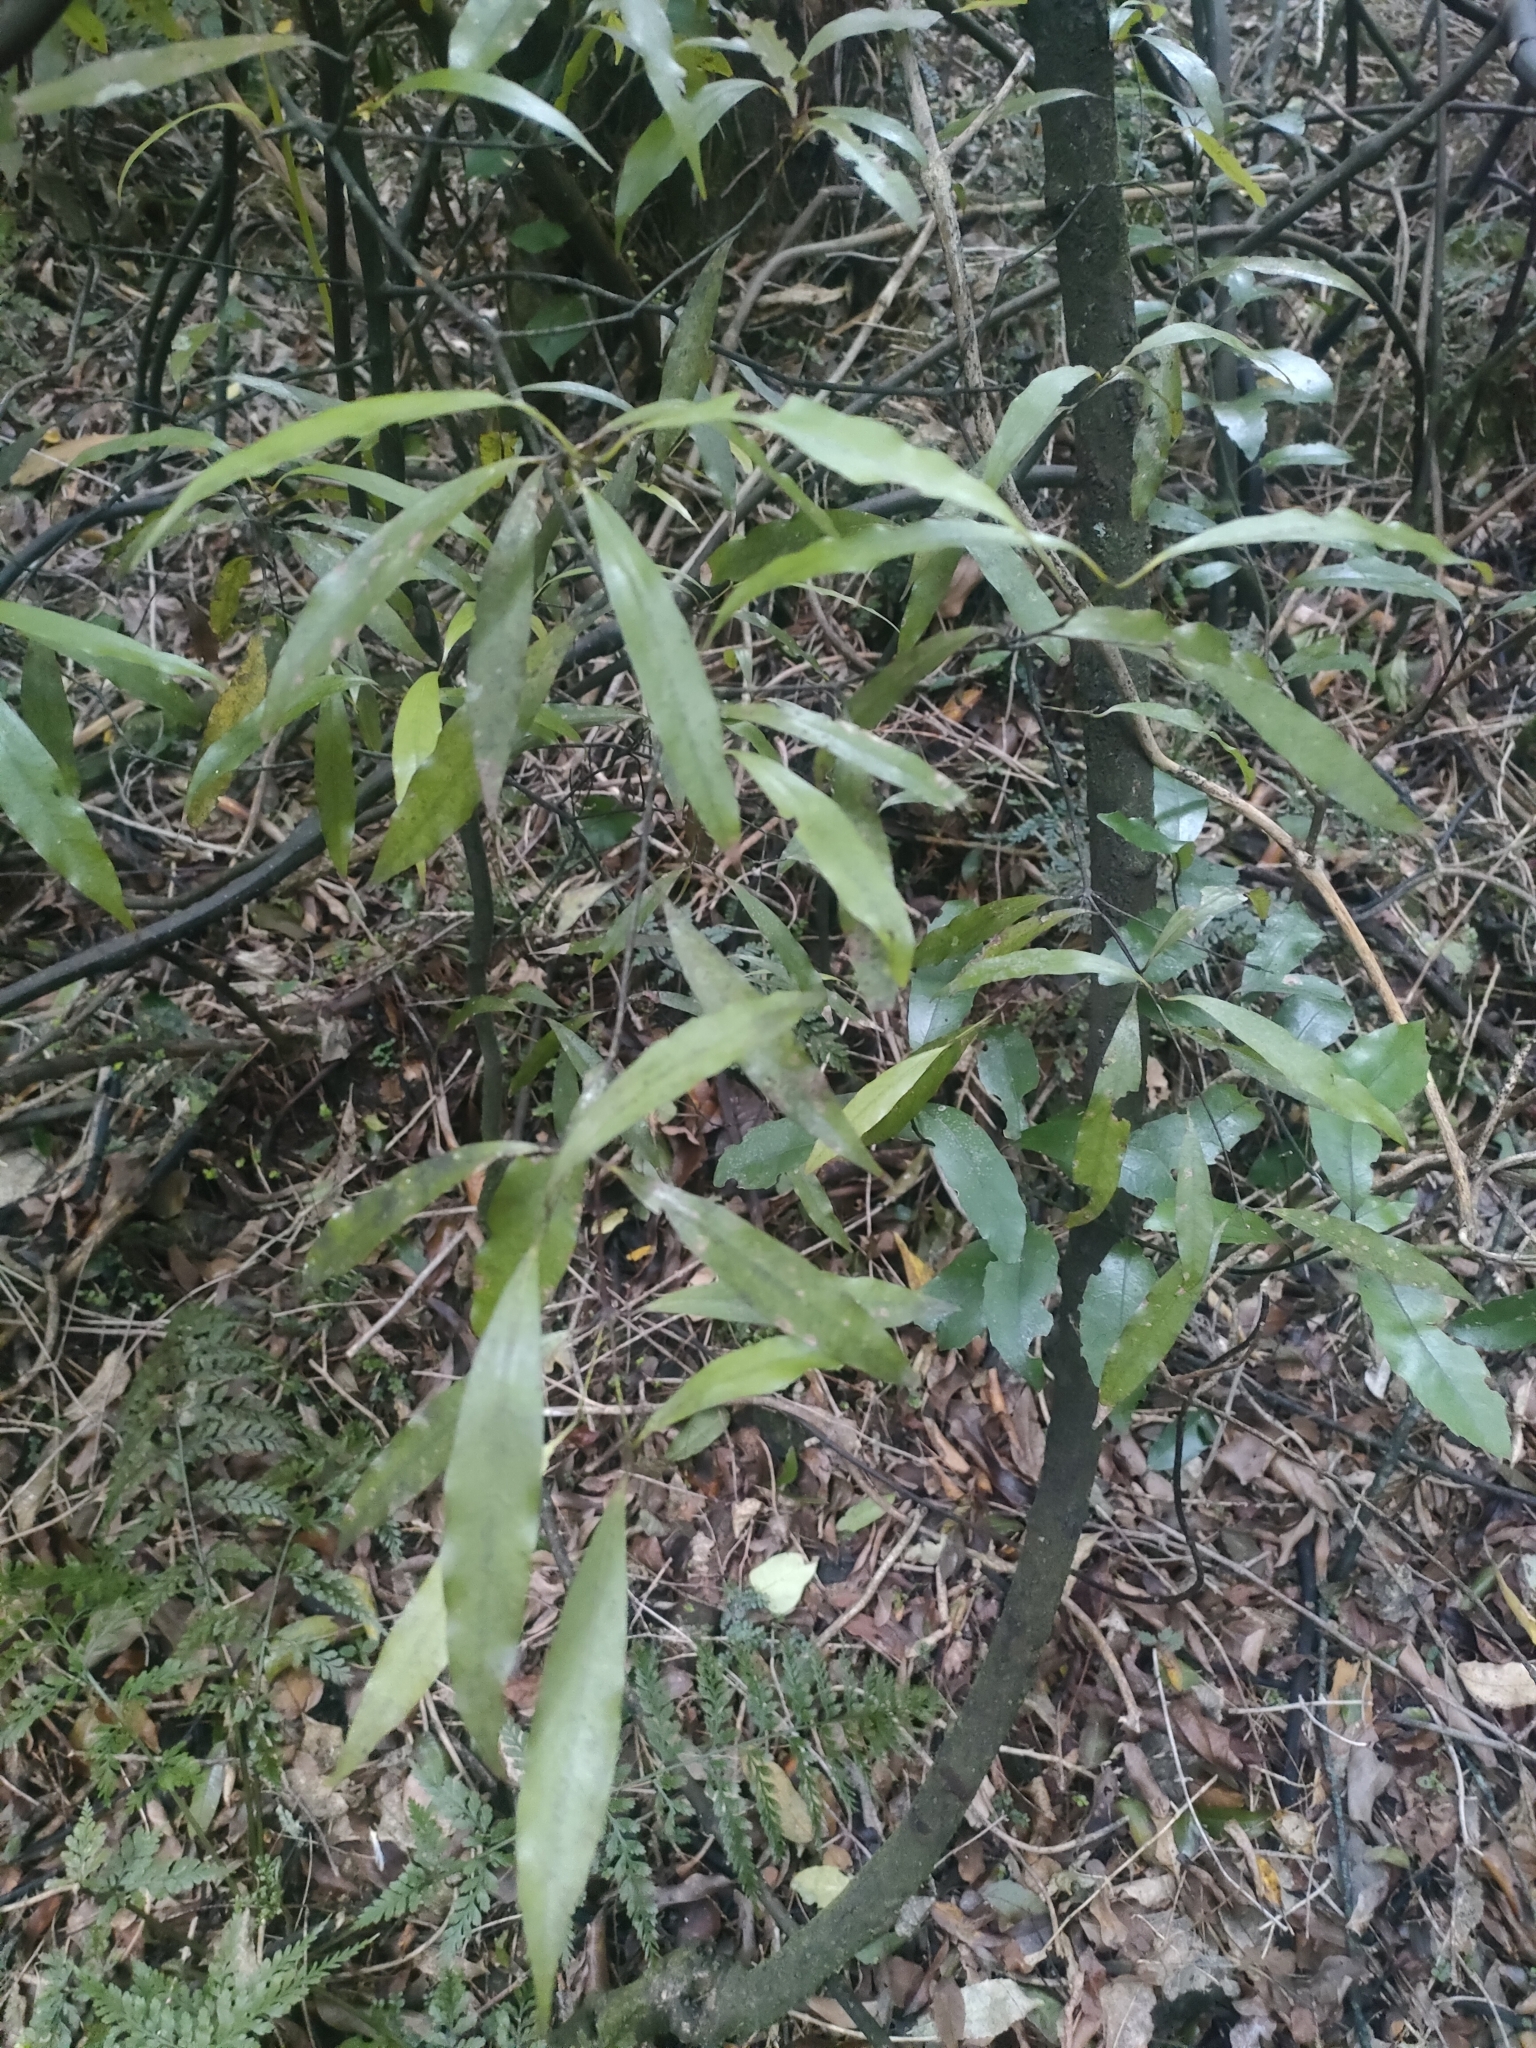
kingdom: Plantae
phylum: Tracheophyta
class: Magnoliopsida
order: Laurales
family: Lauraceae
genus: Beilschmiedia
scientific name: Beilschmiedia tawa
